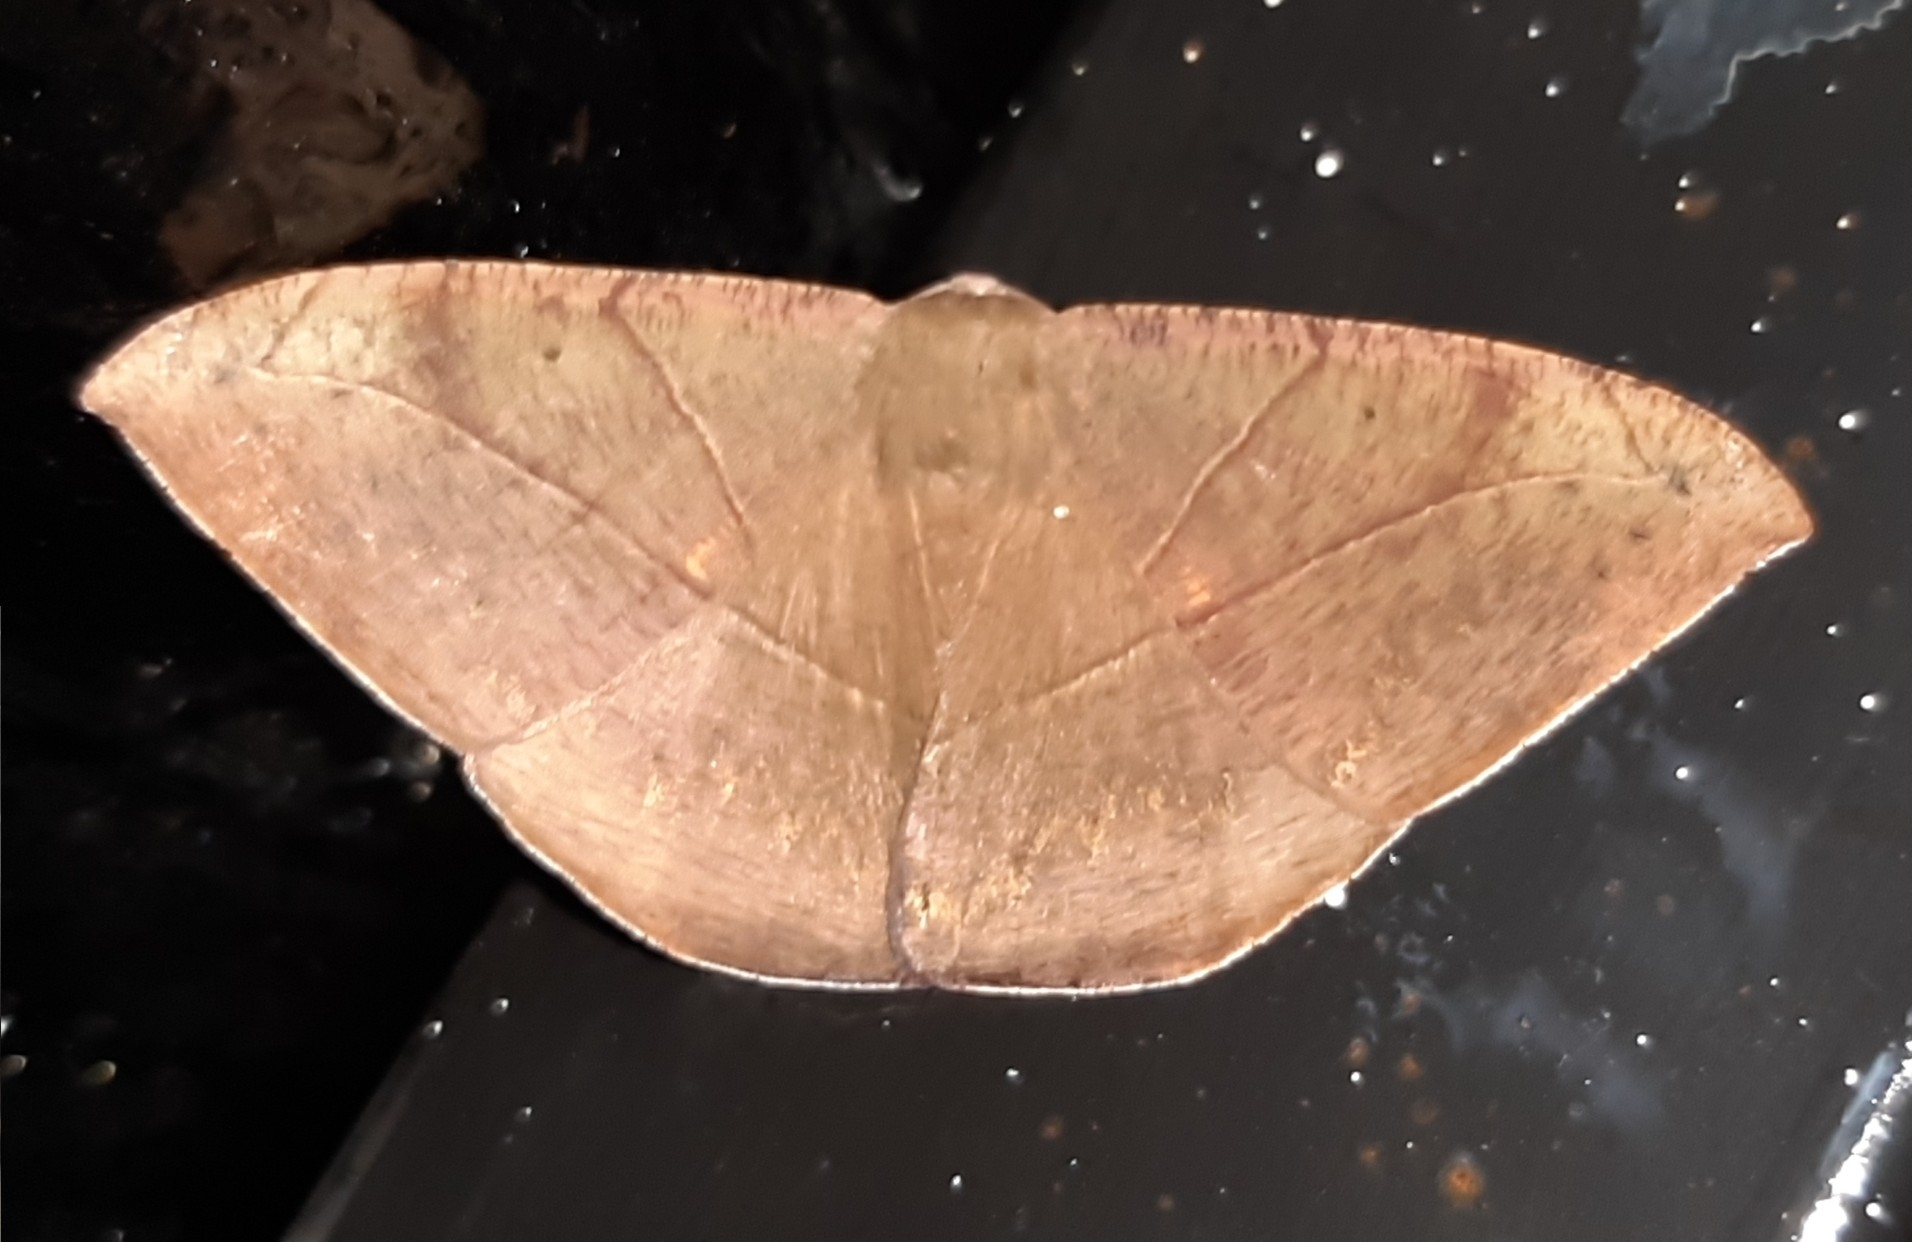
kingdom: Animalia
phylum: Arthropoda
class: Insecta
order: Lepidoptera
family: Geometridae
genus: Oxydia
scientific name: Oxydia trychiata
